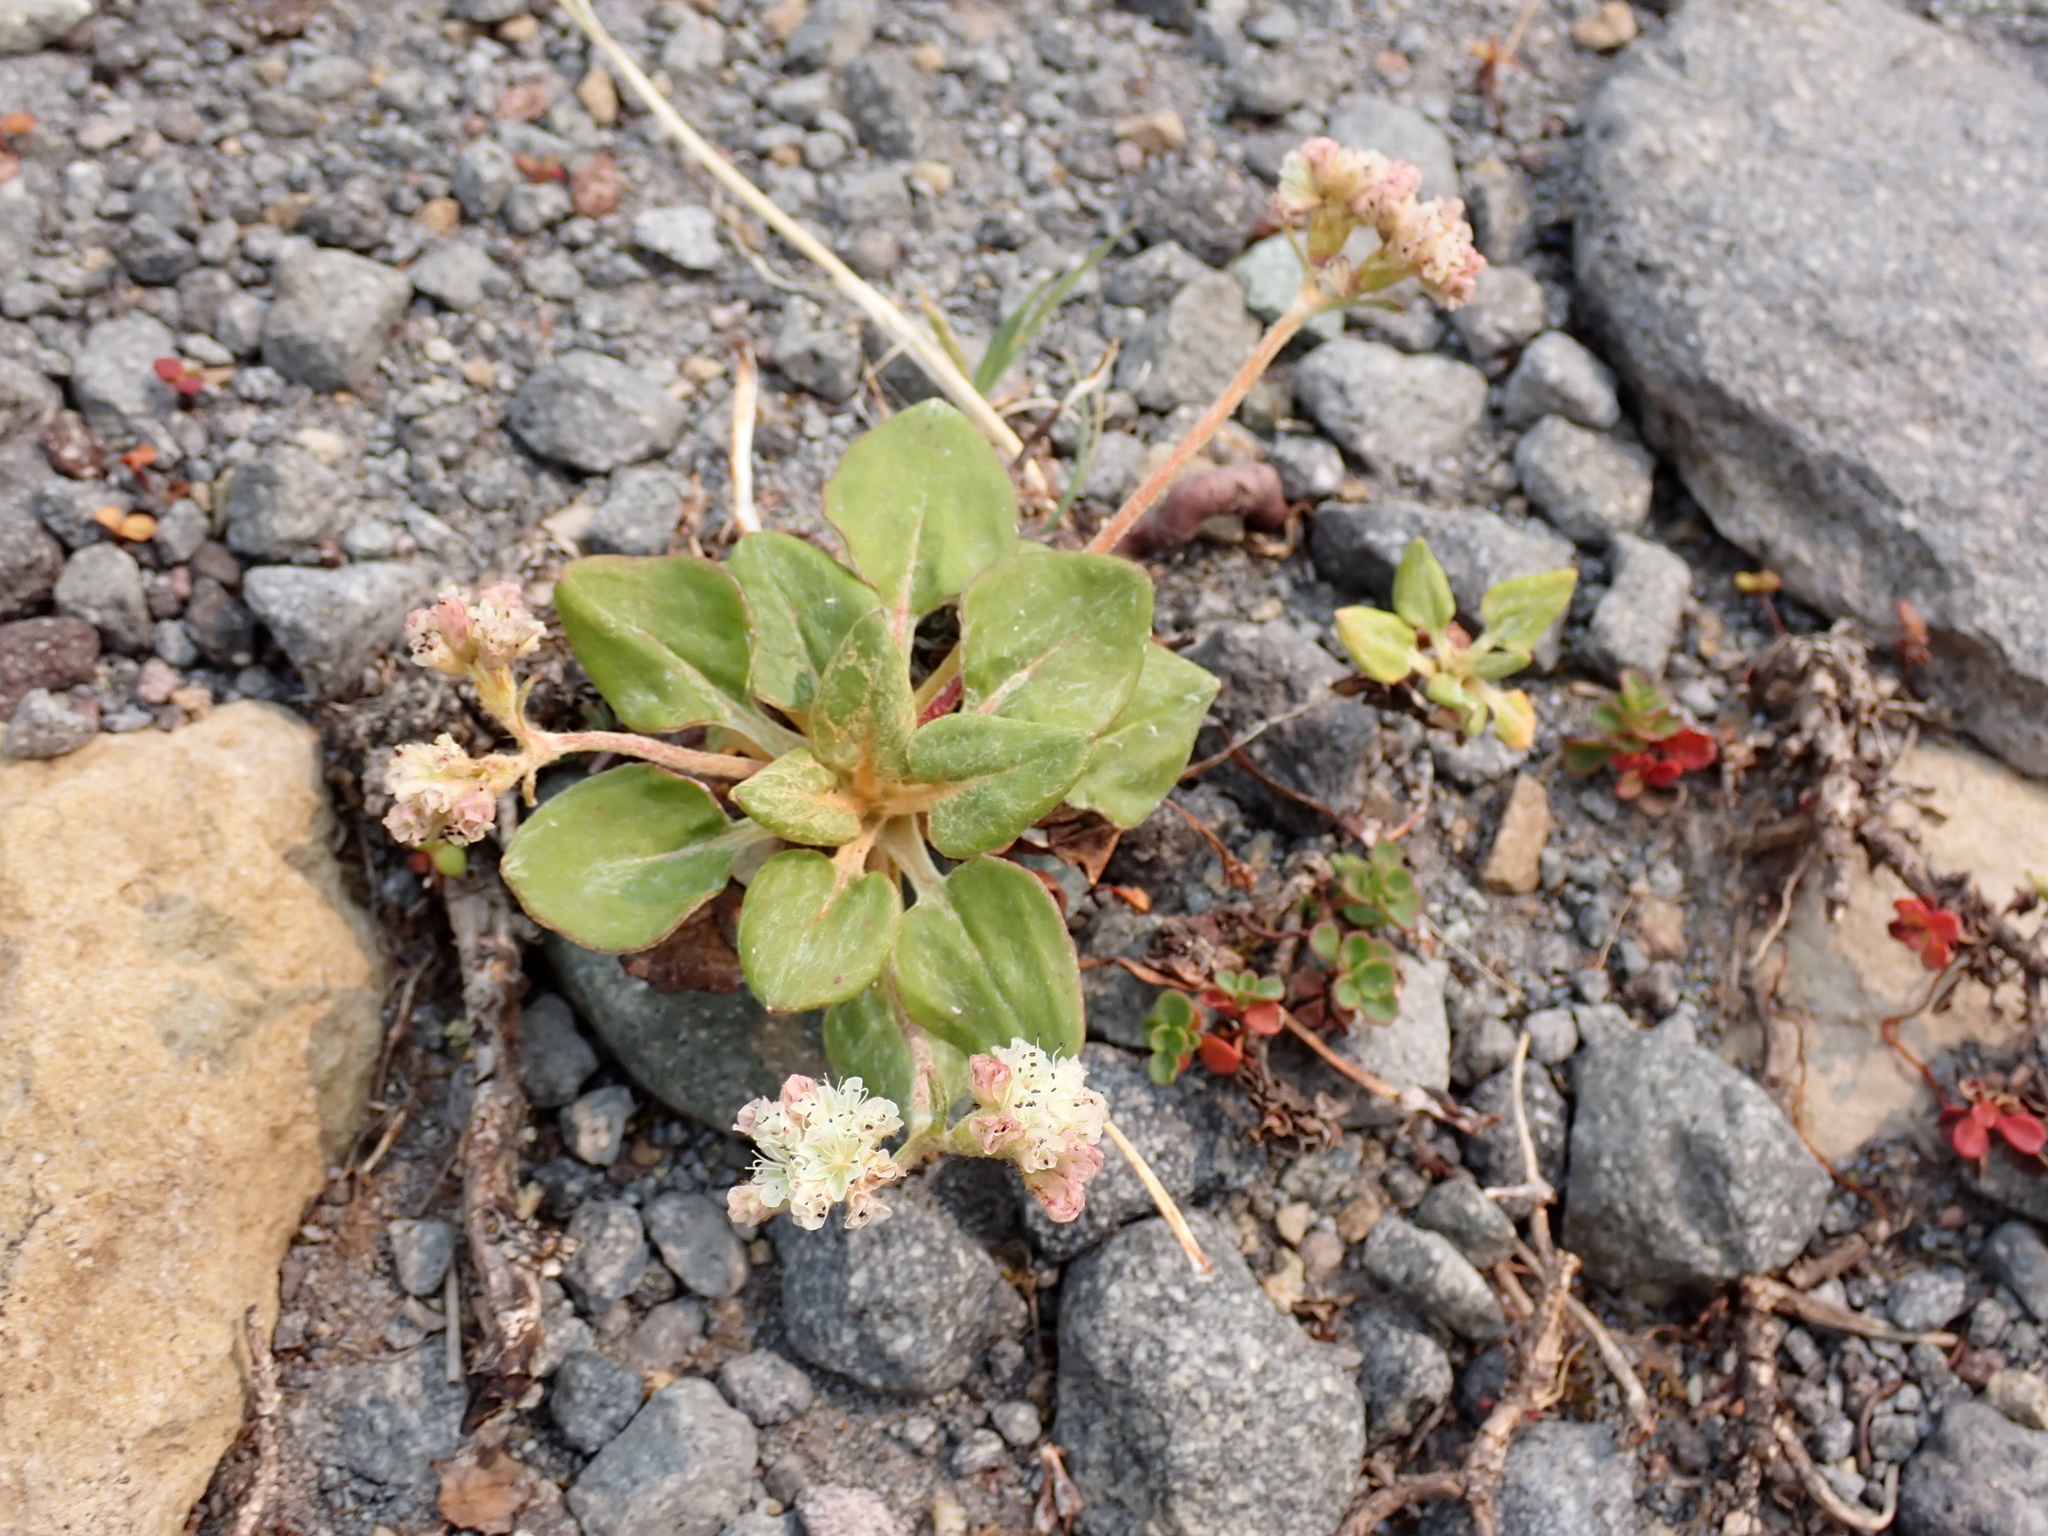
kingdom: Plantae
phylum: Tracheophyta
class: Magnoliopsida
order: Caryophyllales
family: Polygonaceae
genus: Eriogonum
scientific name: Eriogonum pyrolifolium
